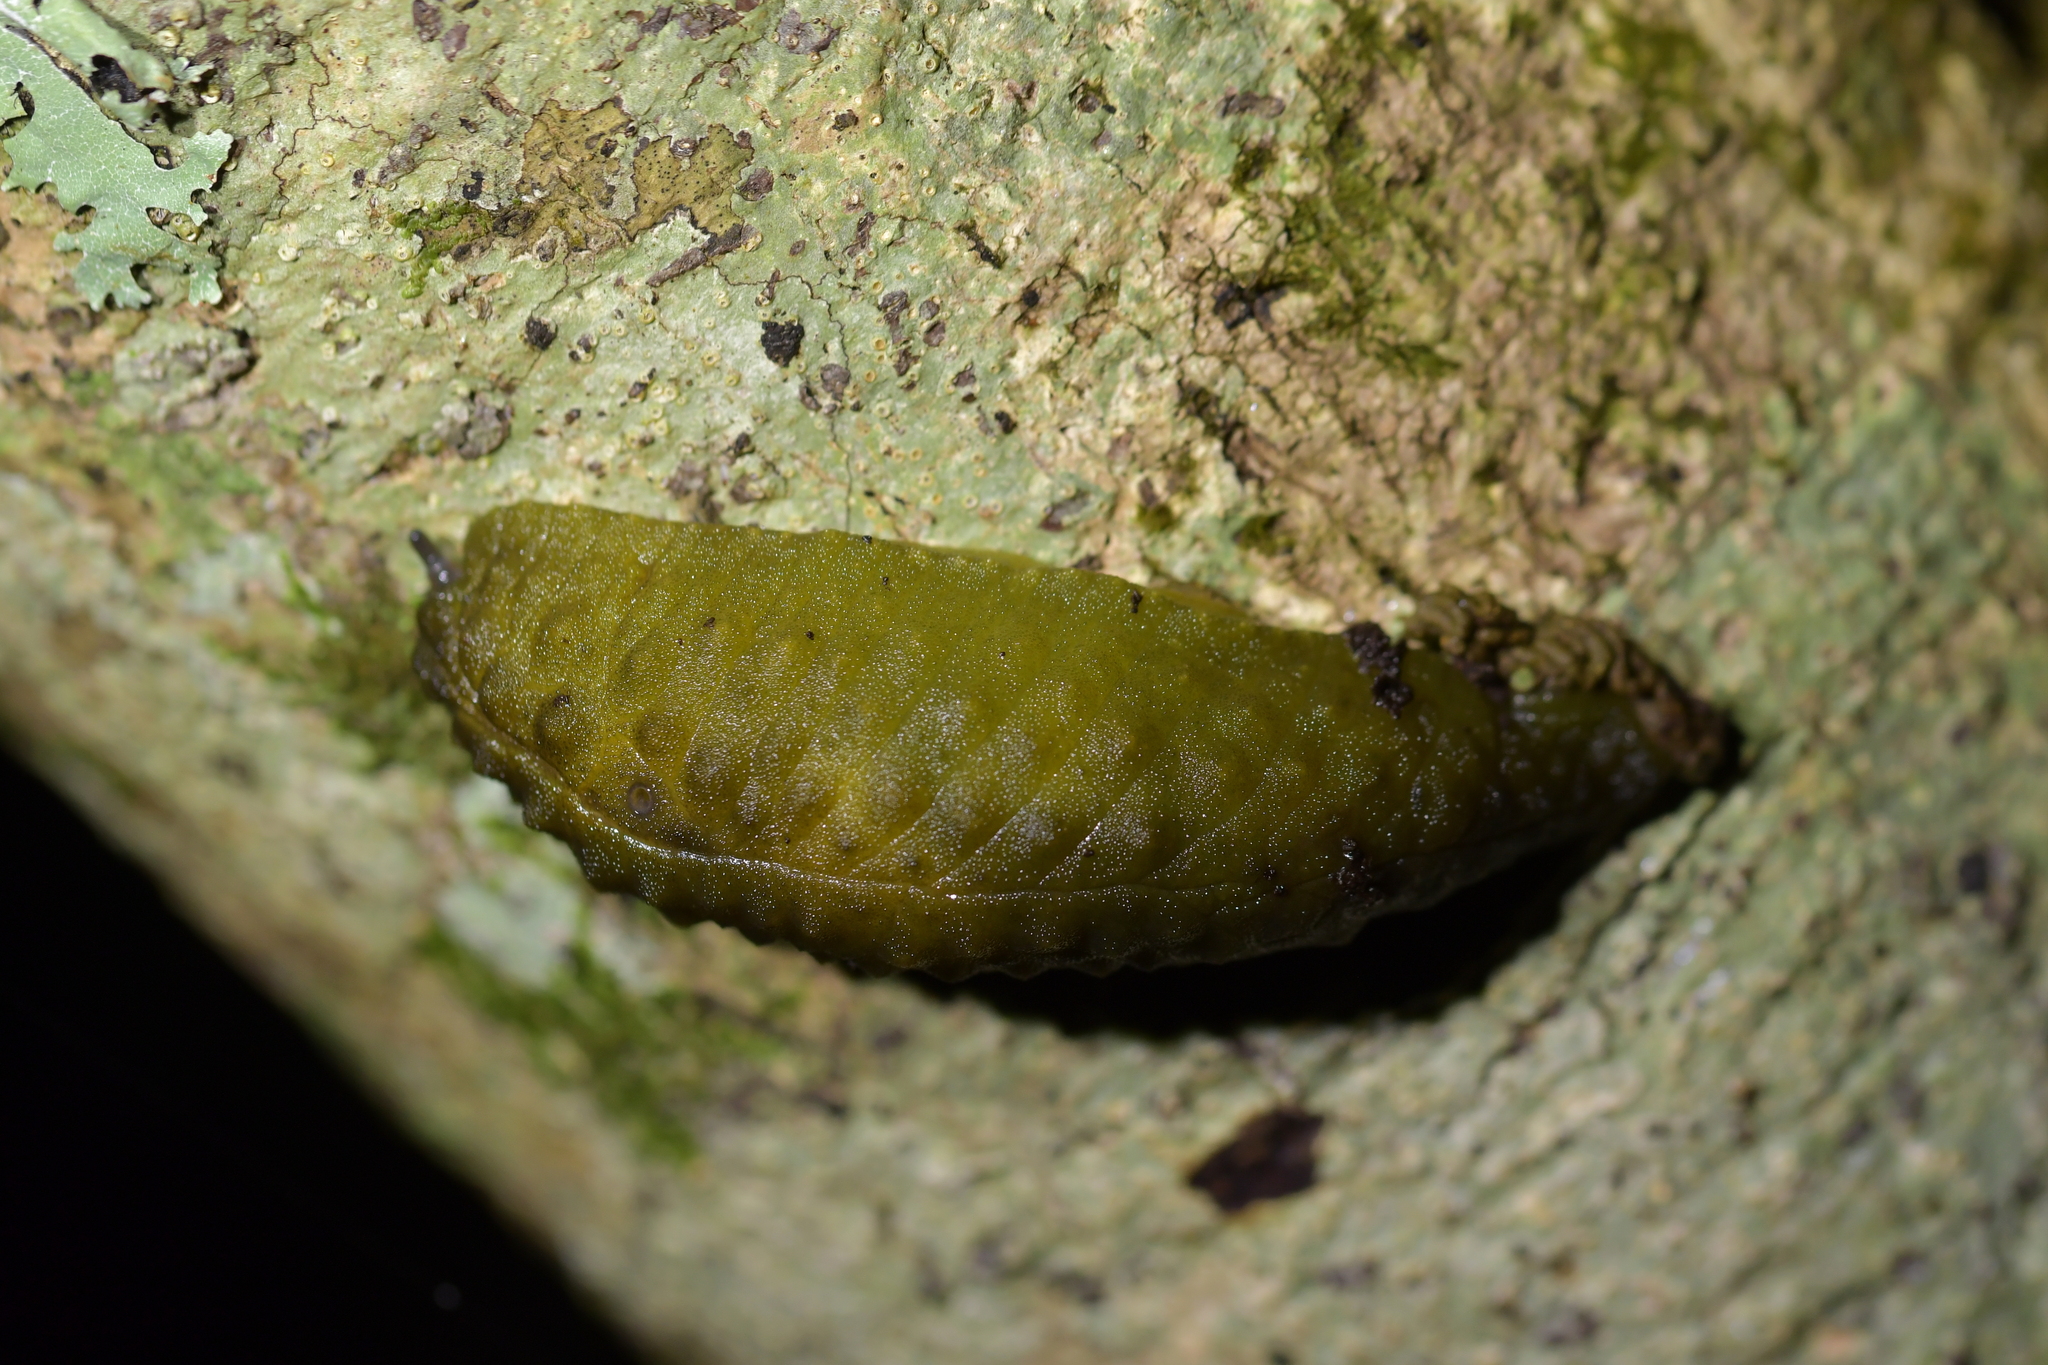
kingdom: Animalia
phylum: Mollusca
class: Gastropoda
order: Stylommatophora
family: Athoracophoridae
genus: Athoracophorus
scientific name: Athoracophorus papillatus
